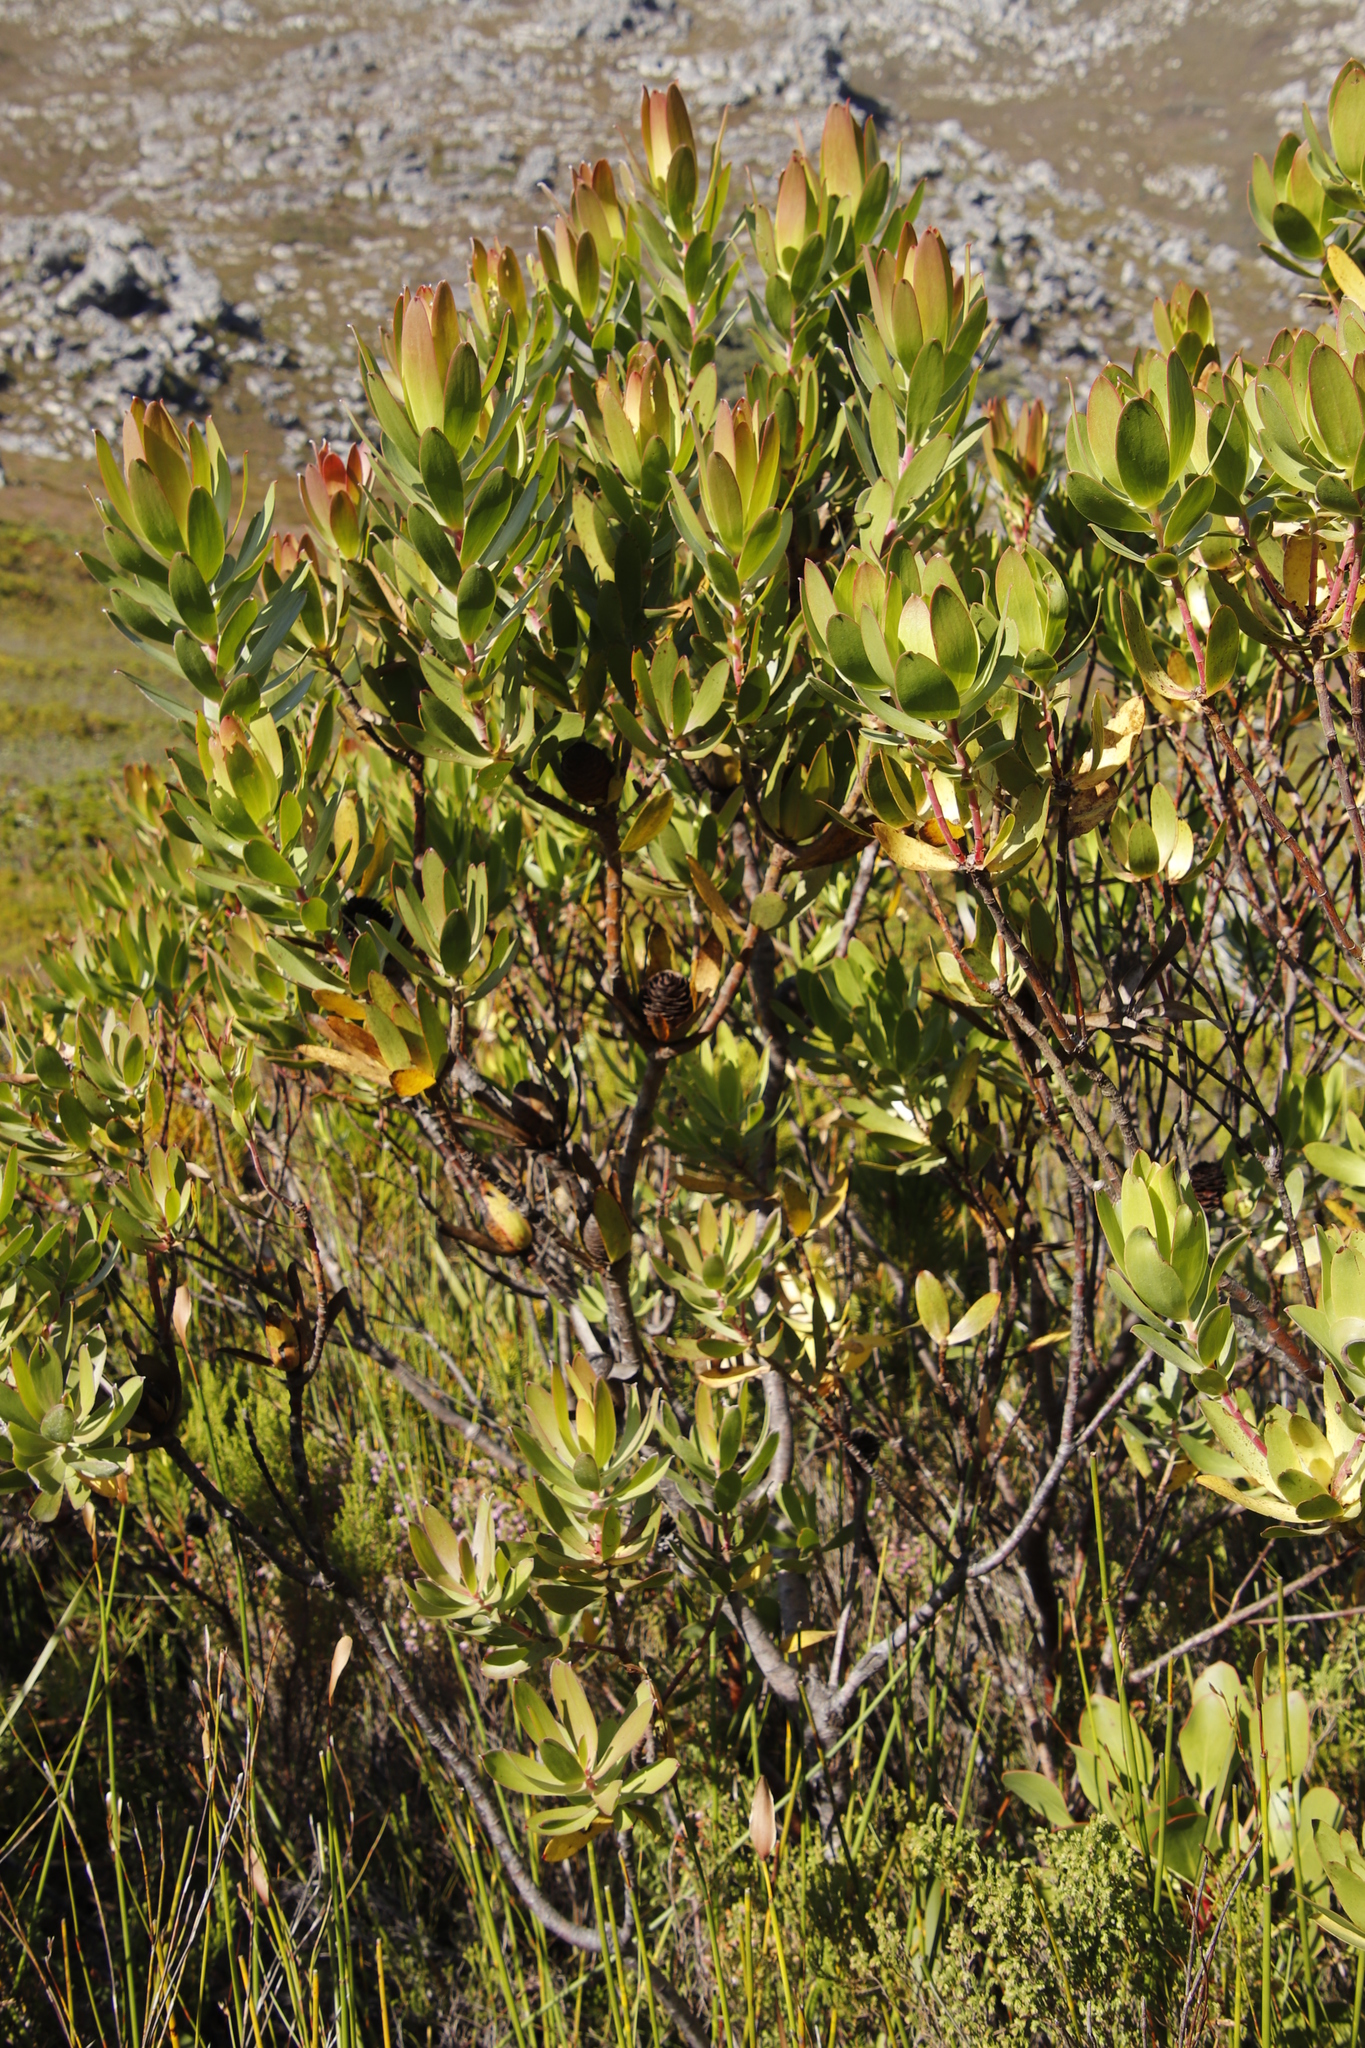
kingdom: Plantae
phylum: Tracheophyta
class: Magnoliopsida
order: Proteales
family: Proteaceae
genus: Leucadendron
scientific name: Leucadendron gandogeri
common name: Broad-leaf conebush
